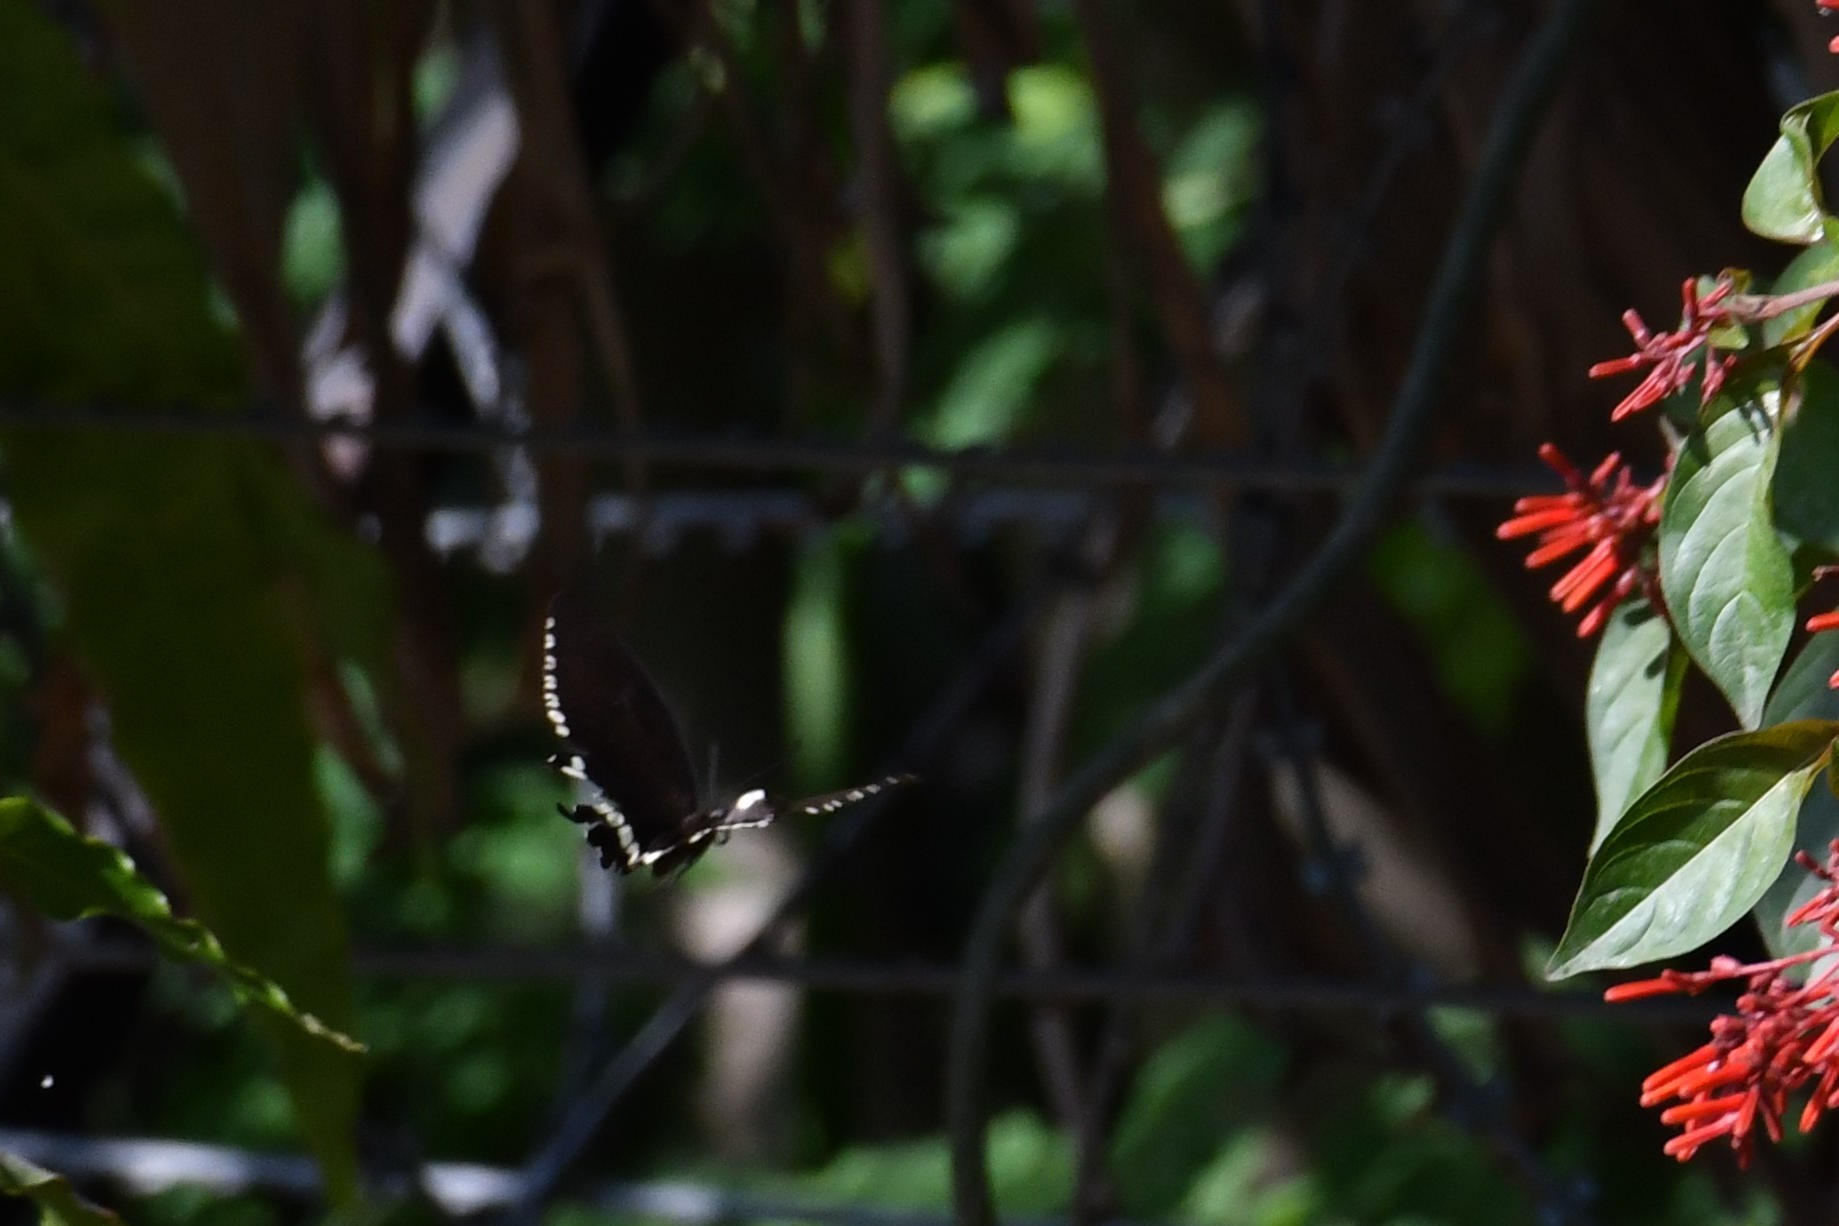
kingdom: Animalia
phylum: Arthropoda
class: Insecta
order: Lepidoptera
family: Papilionidae
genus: Papilio
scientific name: Papilio polytes
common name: Common mormon
